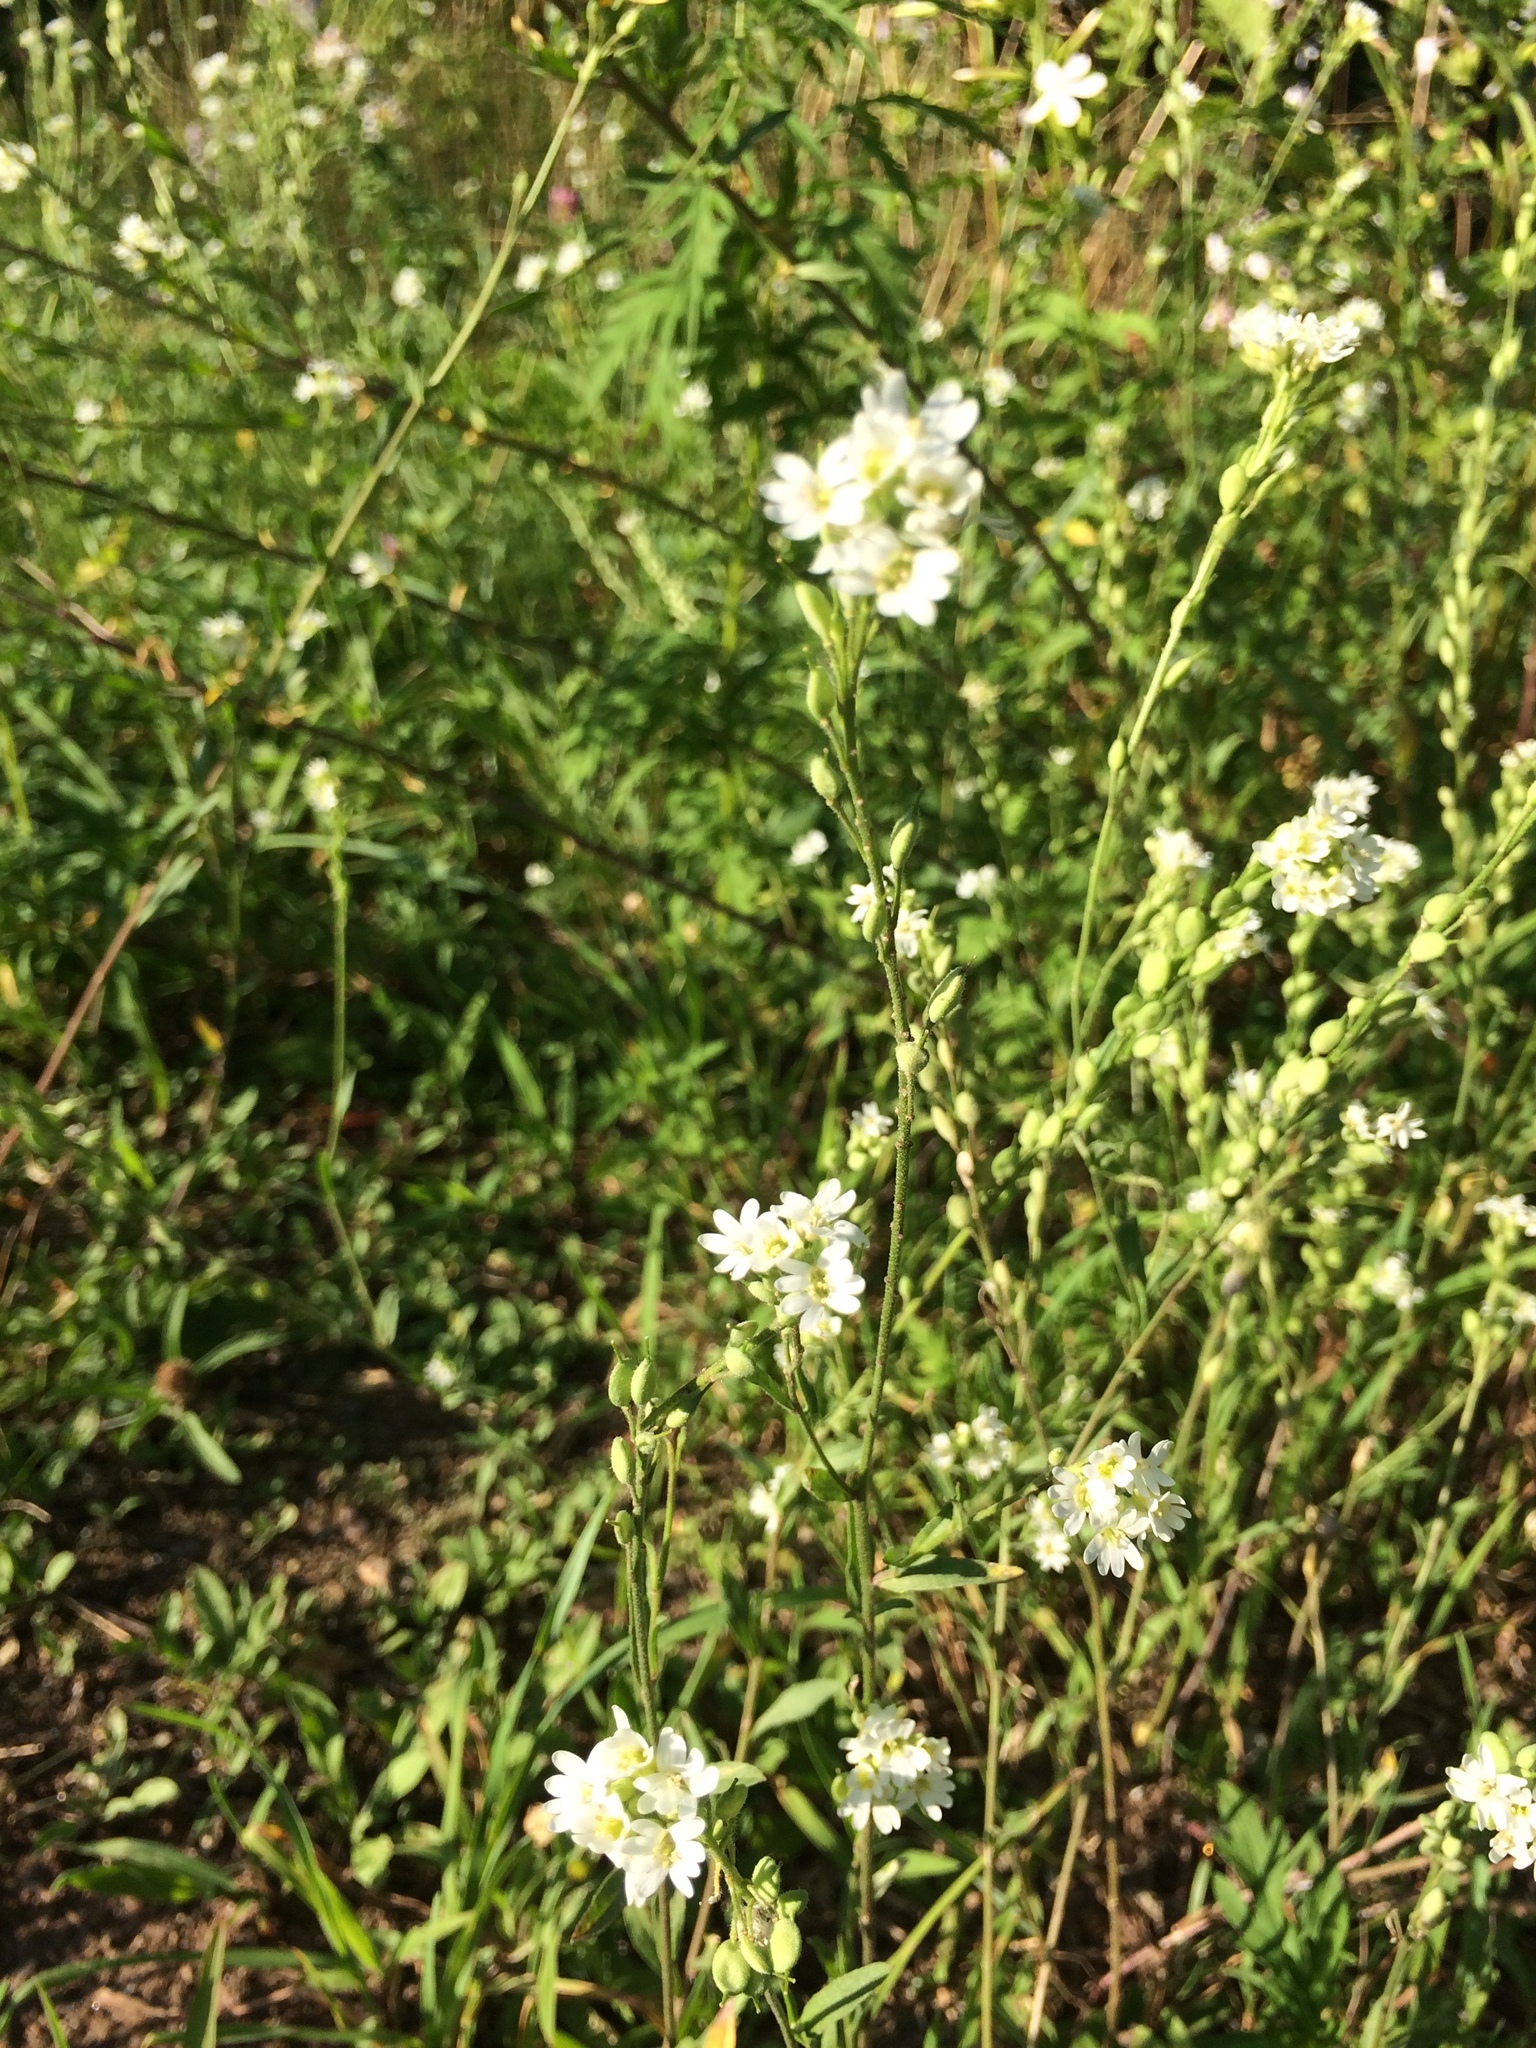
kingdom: Plantae
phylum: Tracheophyta
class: Magnoliopsida
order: Brassicales
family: Brassicaceae
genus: Berteroa
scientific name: Berteroa incana
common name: Hoary alison
